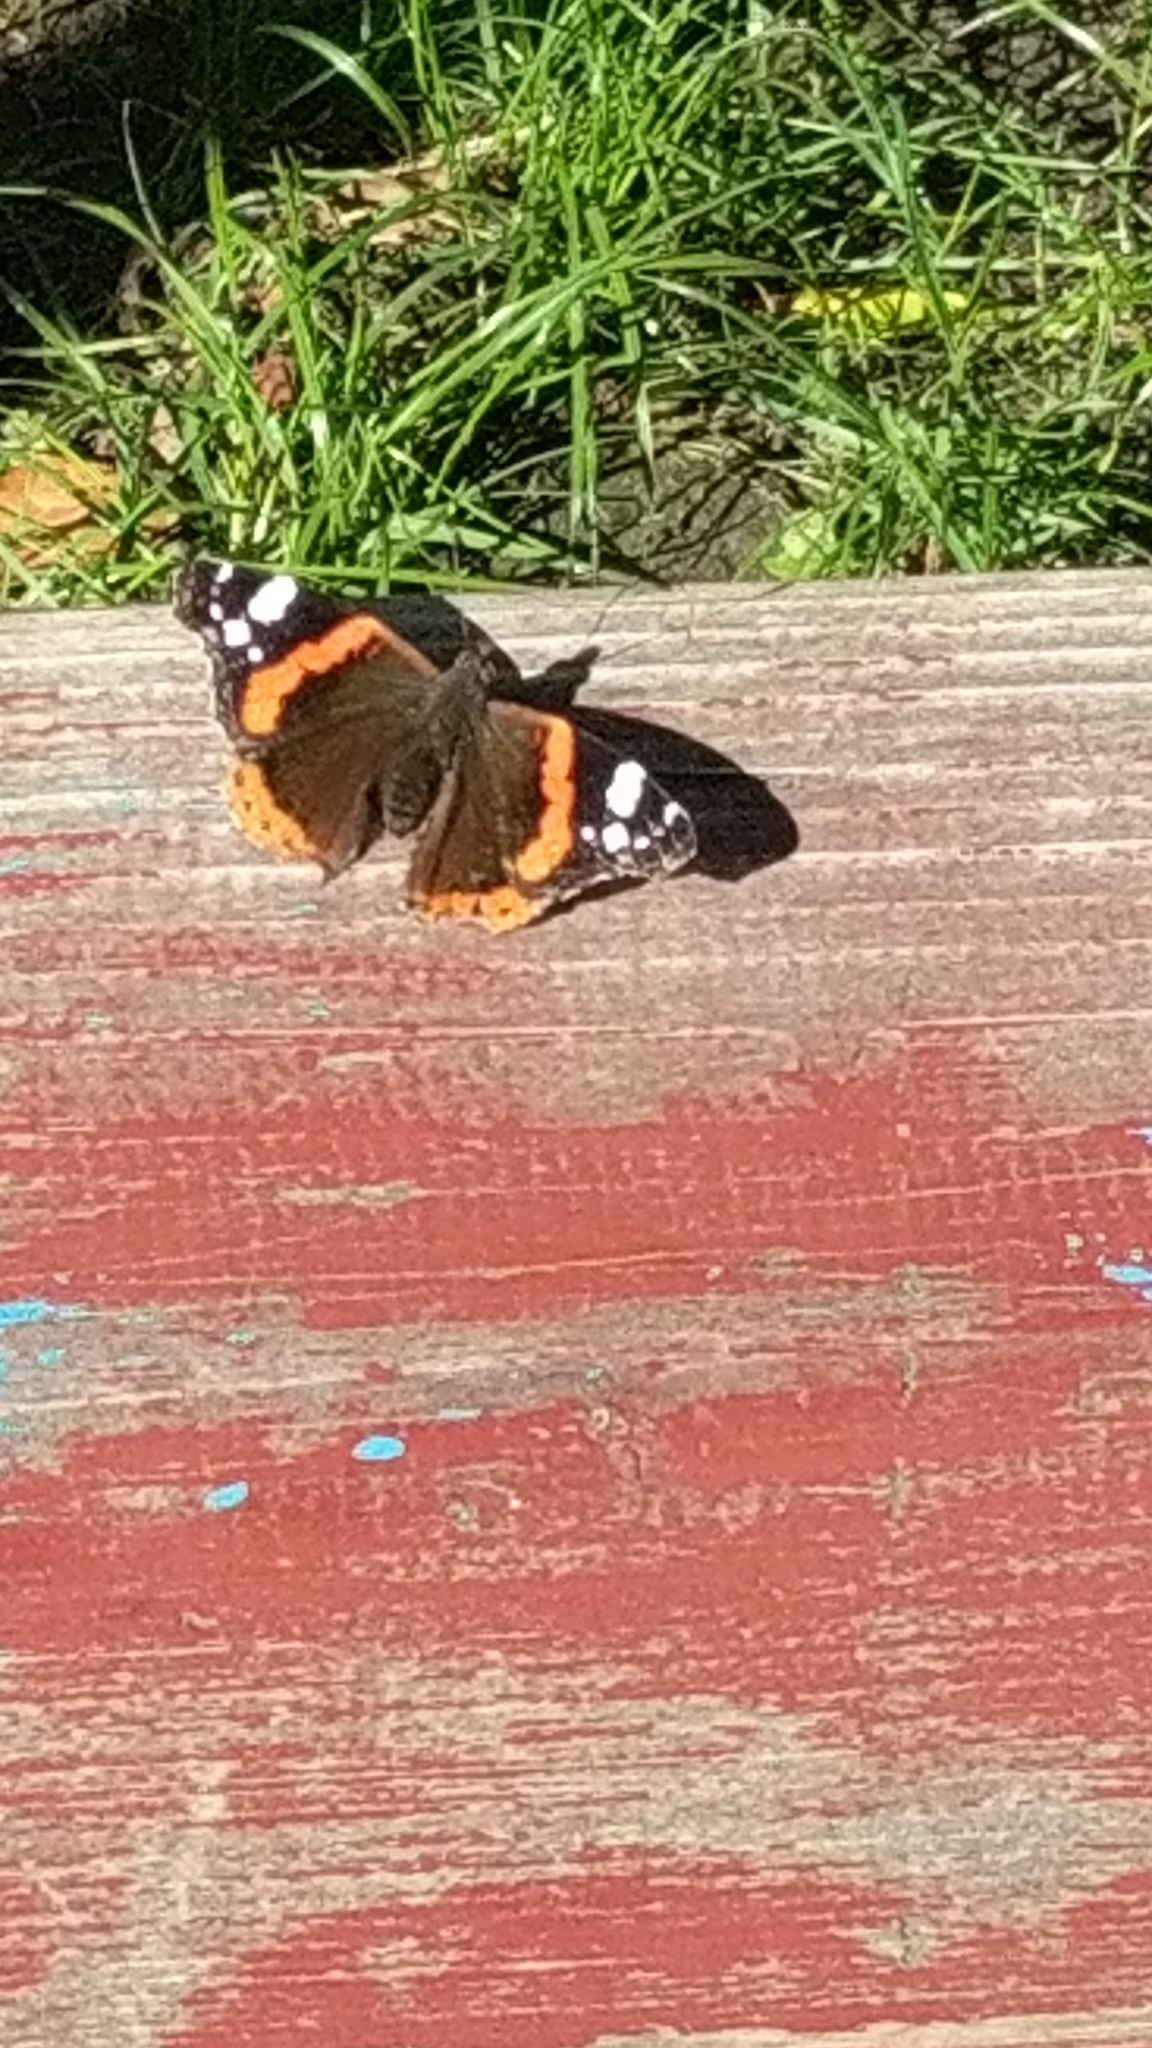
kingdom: Animalia
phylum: Arthropoda
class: Insecta
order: Lepidoptera
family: Nymphalidae
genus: Vanessa
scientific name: Vanessa atalanta
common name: Red admiral
